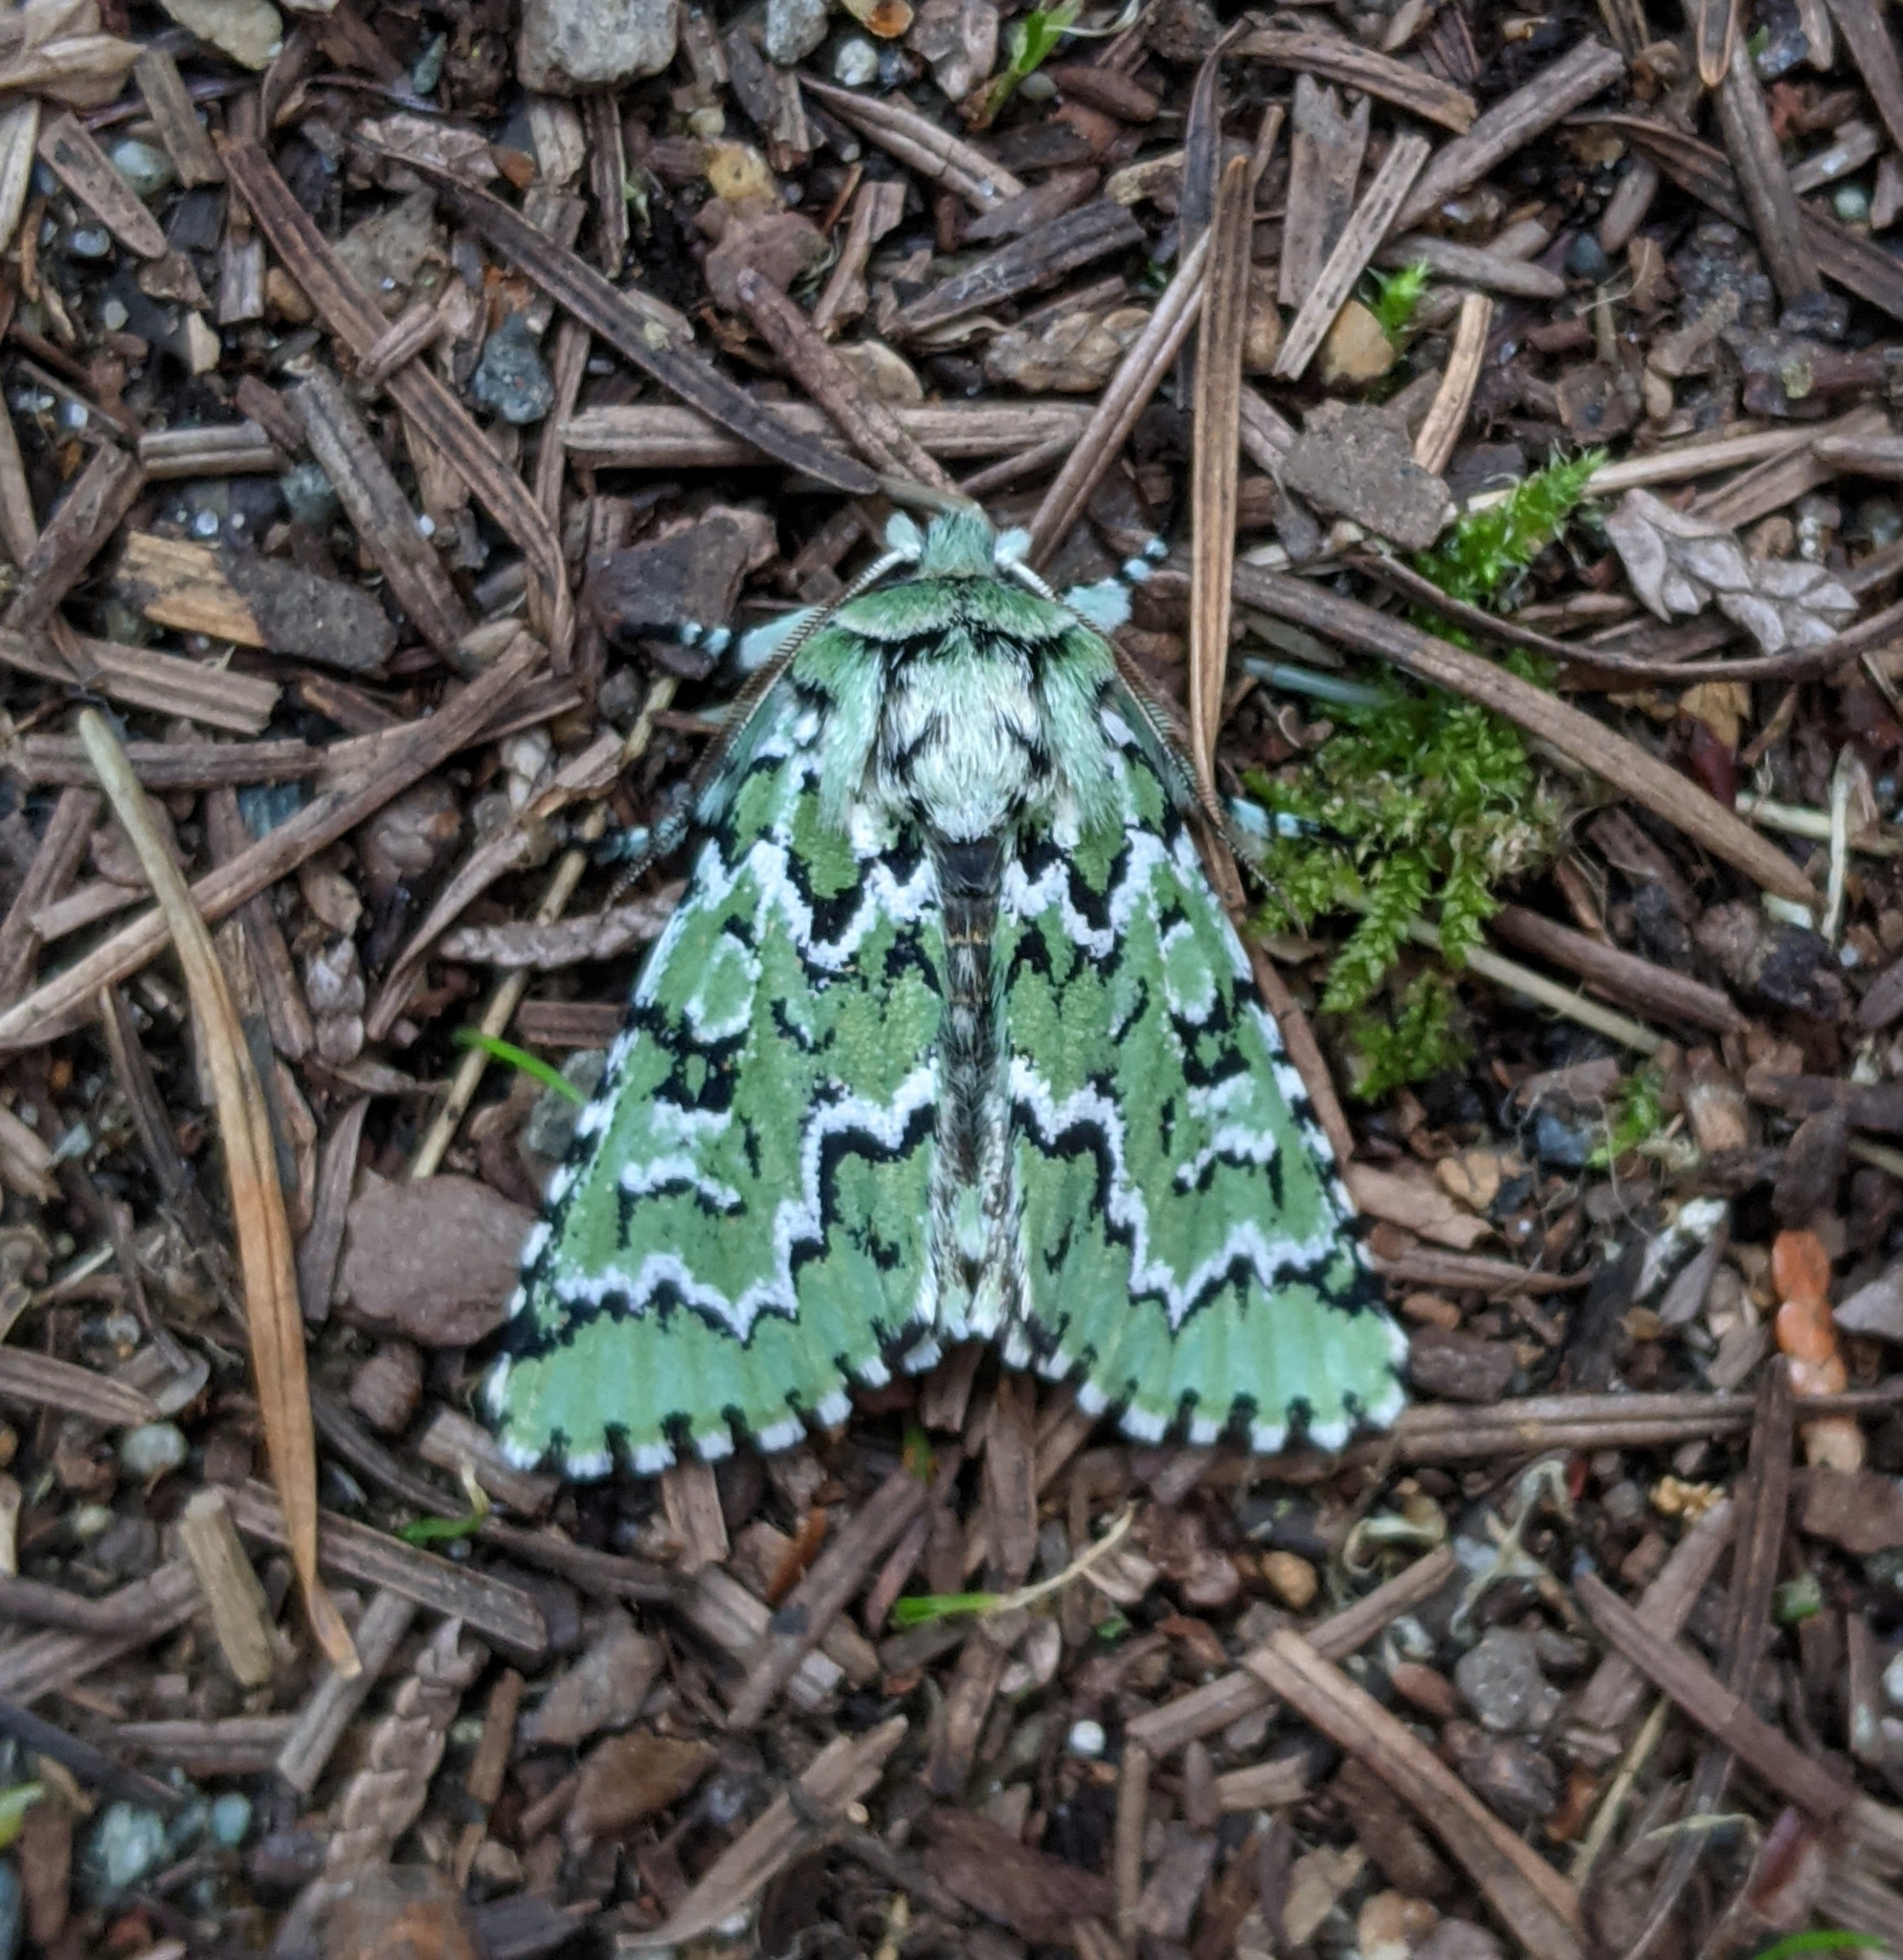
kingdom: Animalia
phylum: Arthropoda
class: Insecta
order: Lepidoptera
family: Noctuidae
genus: Feralia
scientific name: Feralia deceptiva
